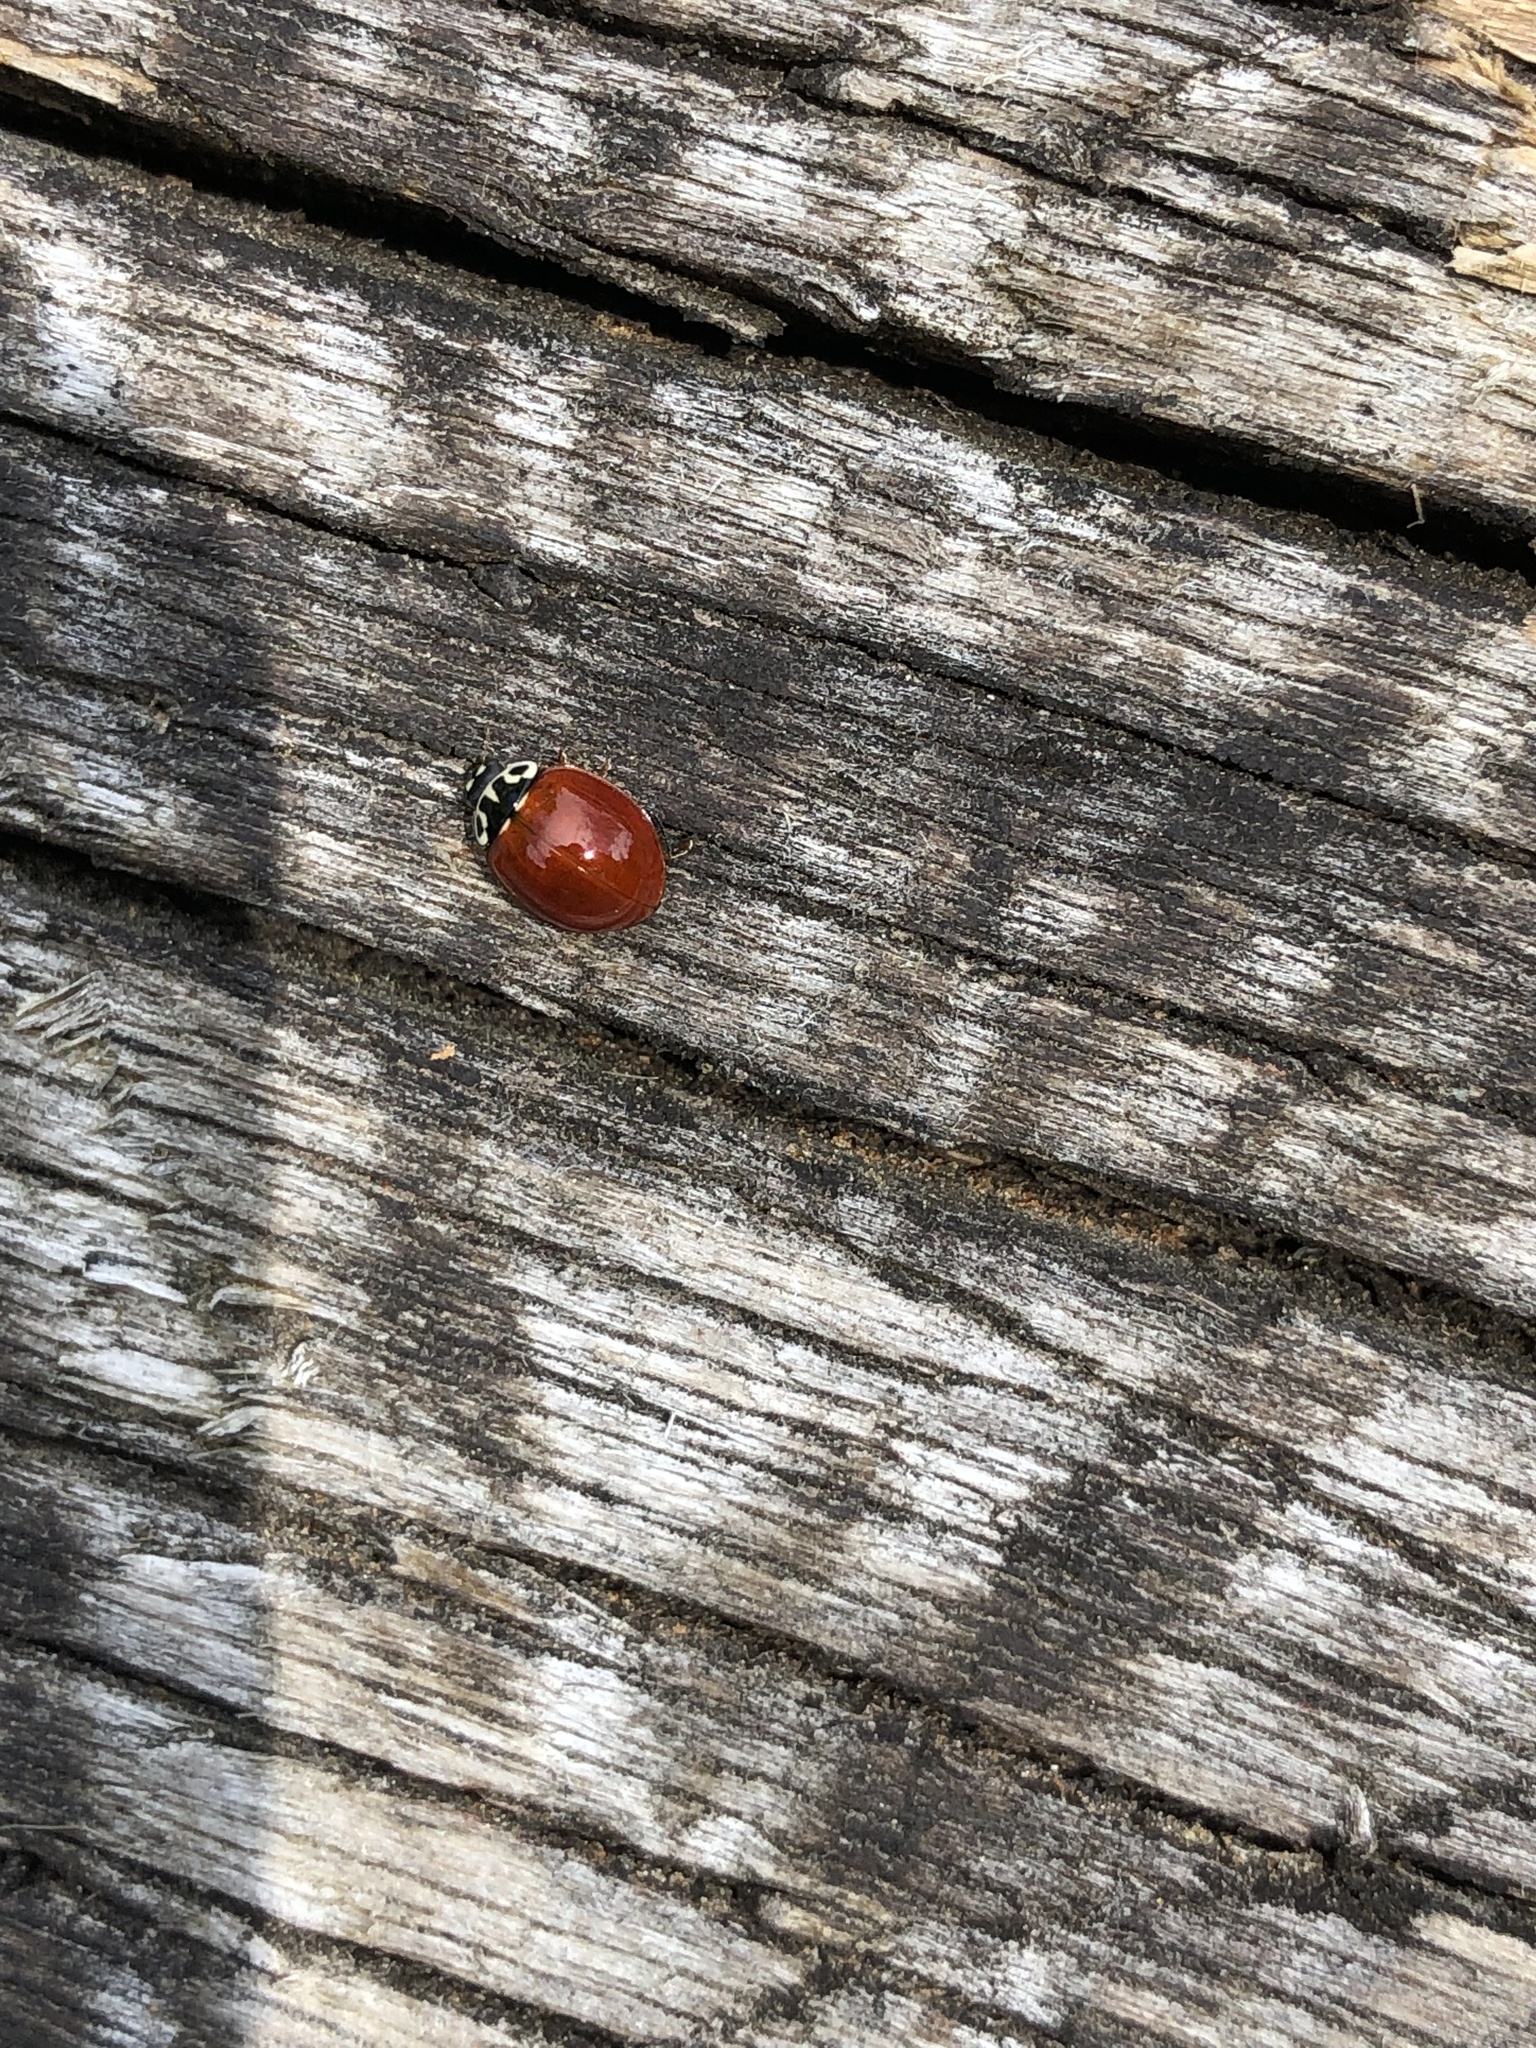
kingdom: Animalia
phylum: Arthropoda
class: Insecta
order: Coleoptera
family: Coccinellidae
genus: Cycloneda
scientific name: Cycloneda polita
